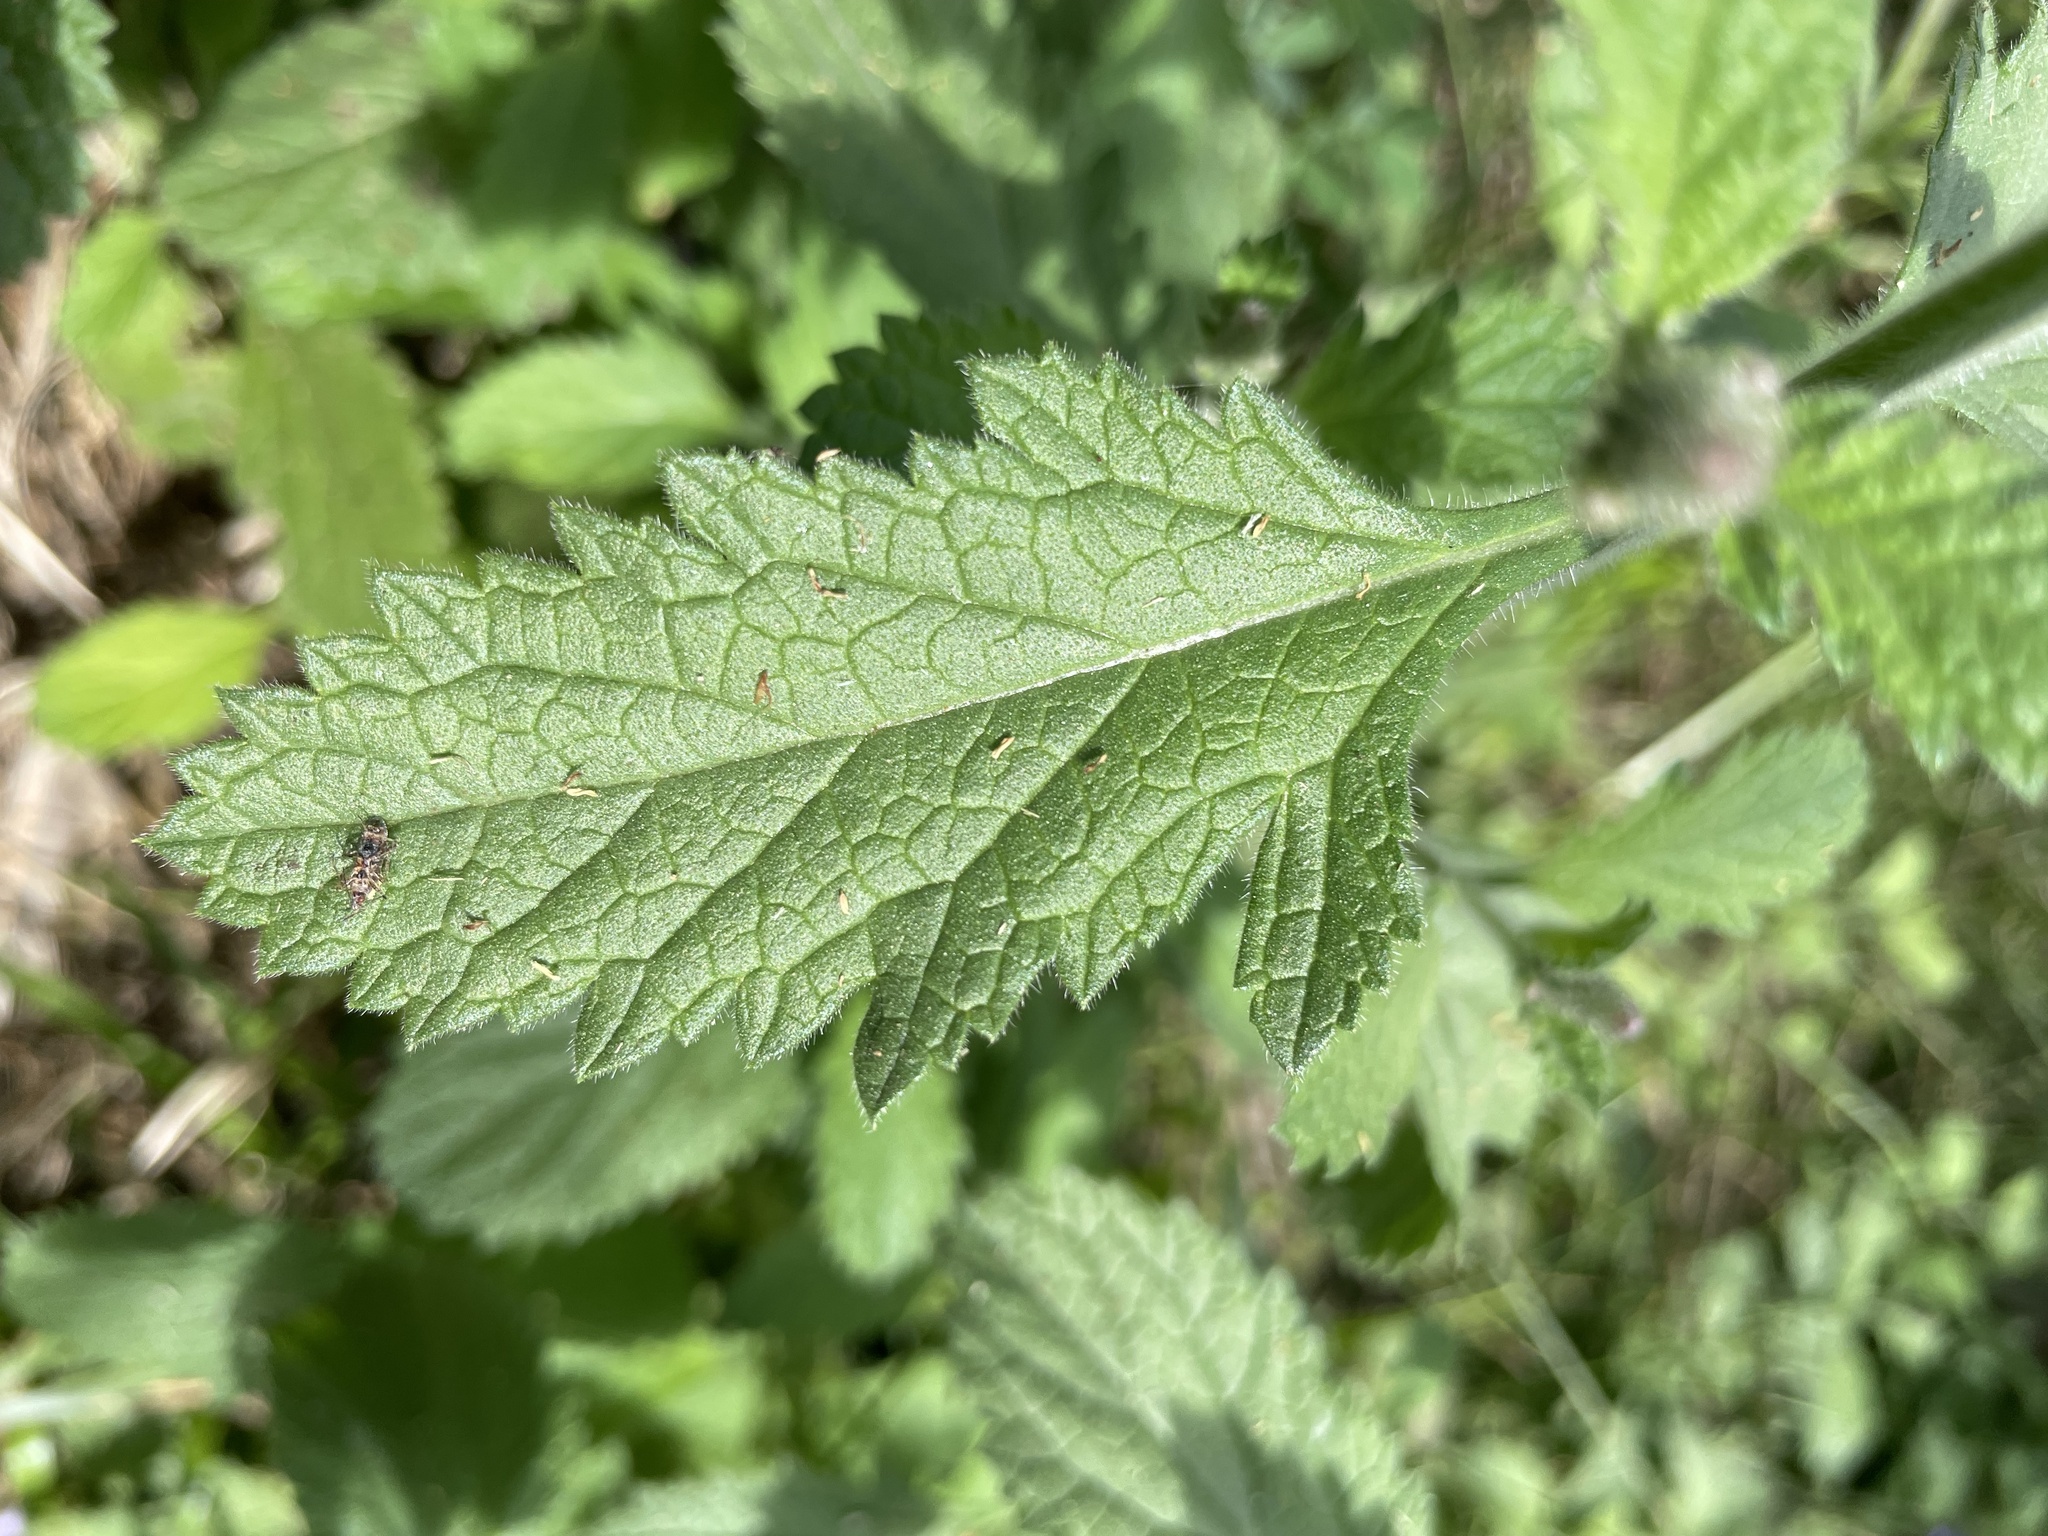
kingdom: Plantae
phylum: Tracheophyta
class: Magnoliopsida
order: Lamiales
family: Verbenaceae
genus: Verbena
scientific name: Verbena lasiostachys
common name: Vervain
